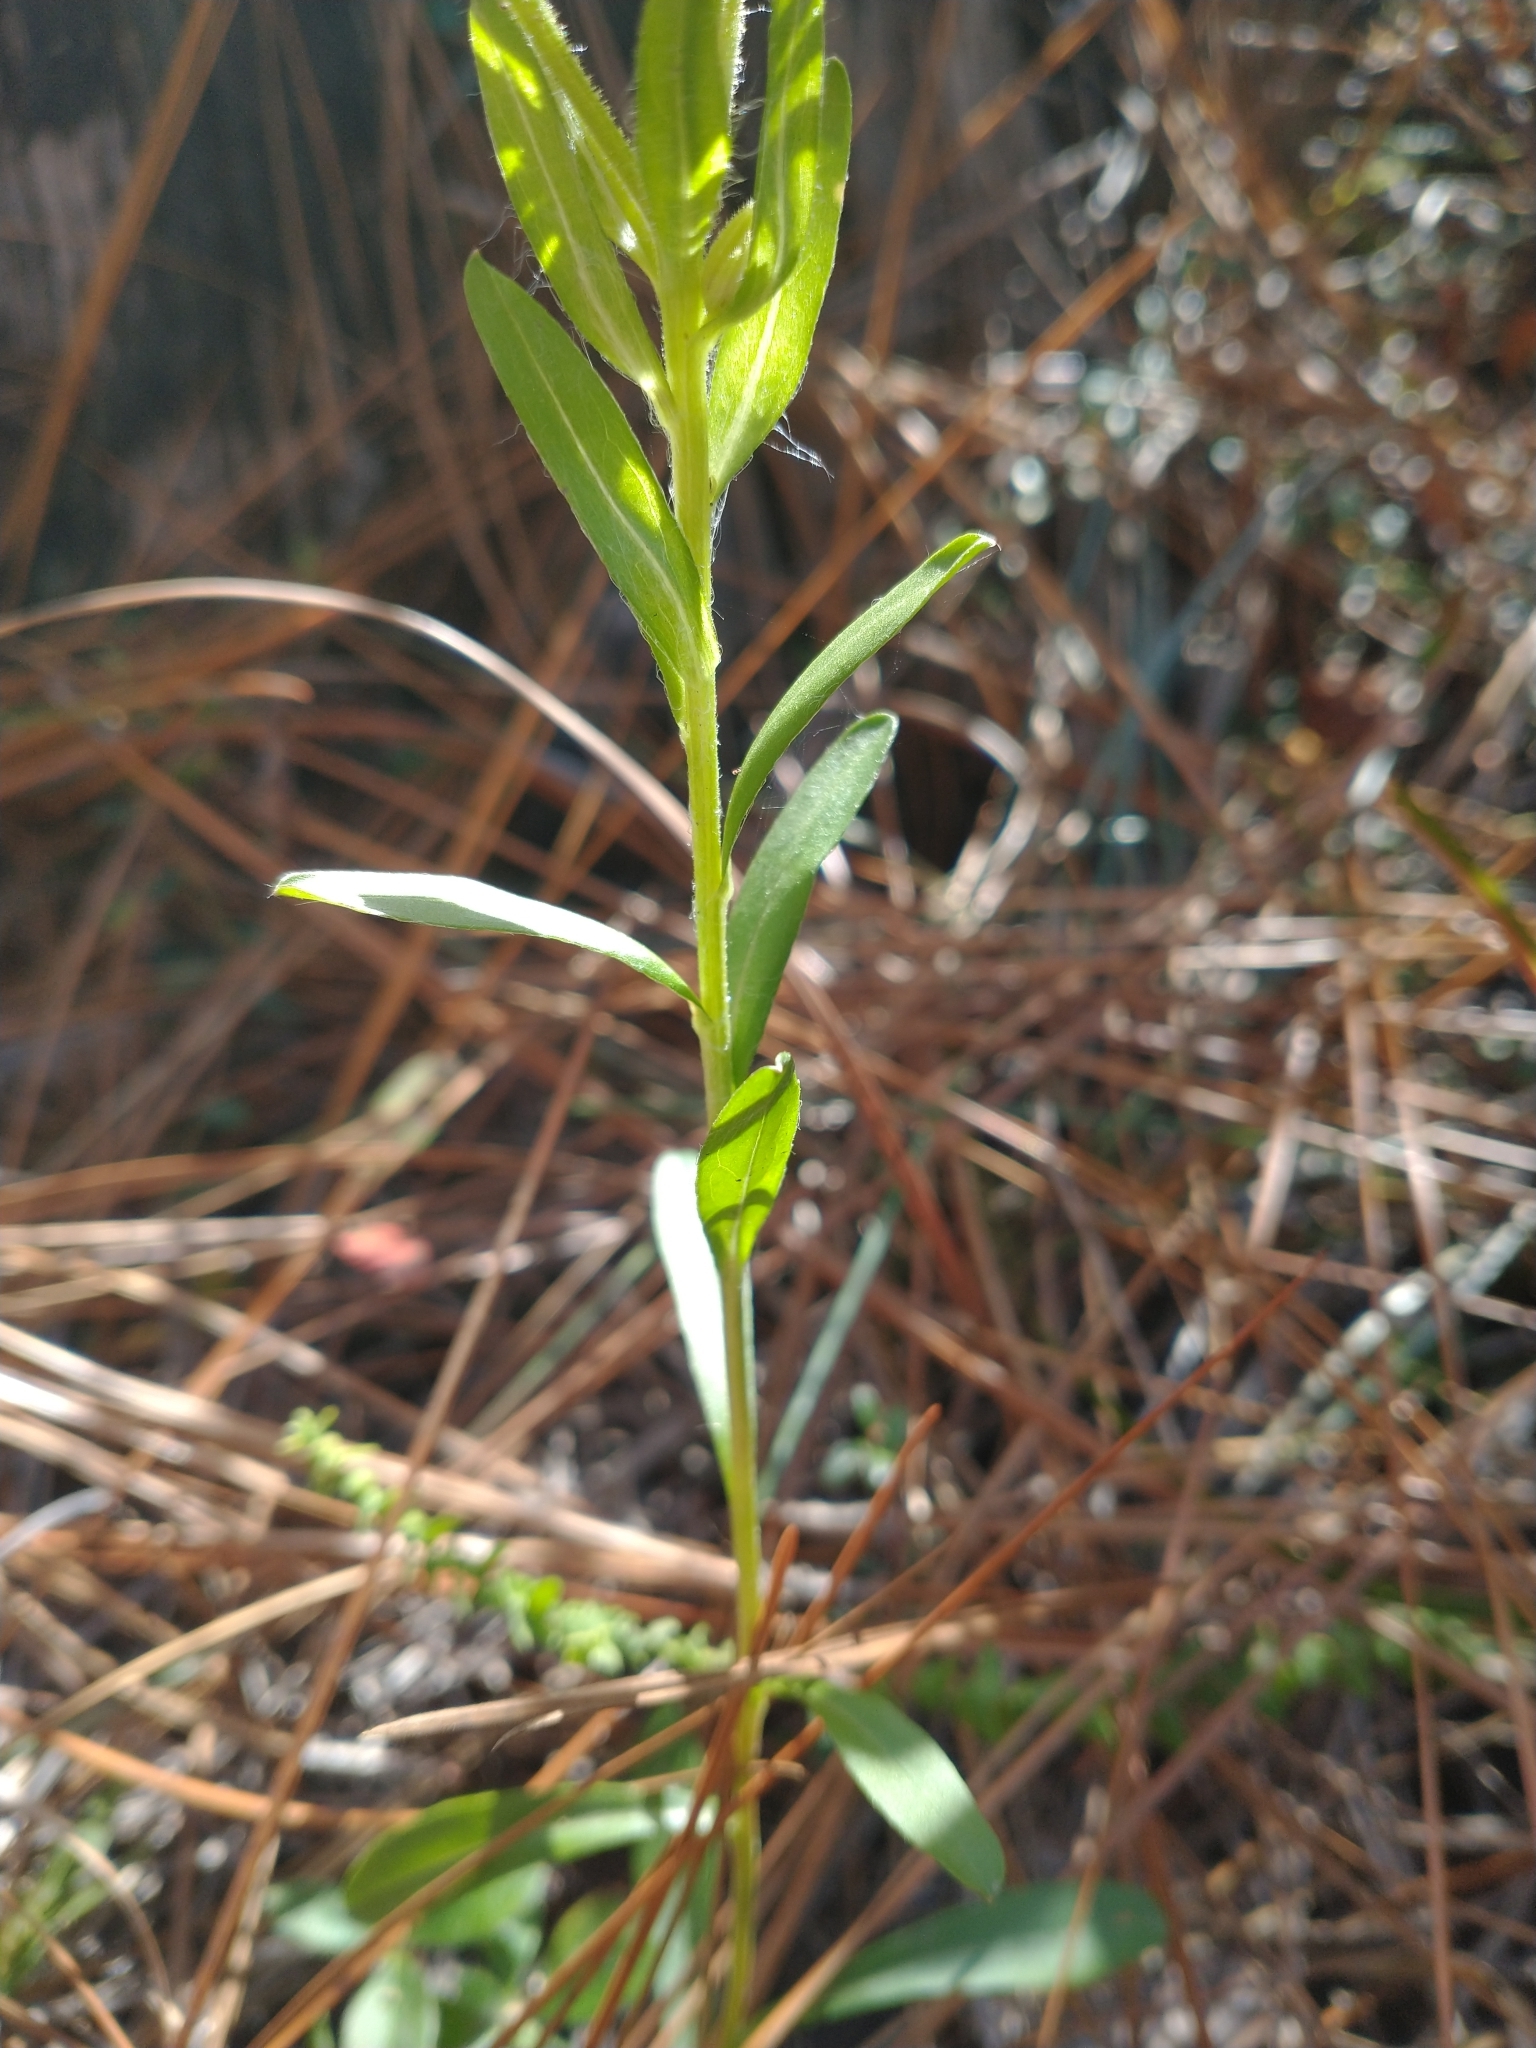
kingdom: Plantae
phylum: Tracheophyta
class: Magnoliopsida
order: Asterales
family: Asteraceae
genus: Chrysopsis
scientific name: Chrysopsis mariana
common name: Maryland golden-aster
